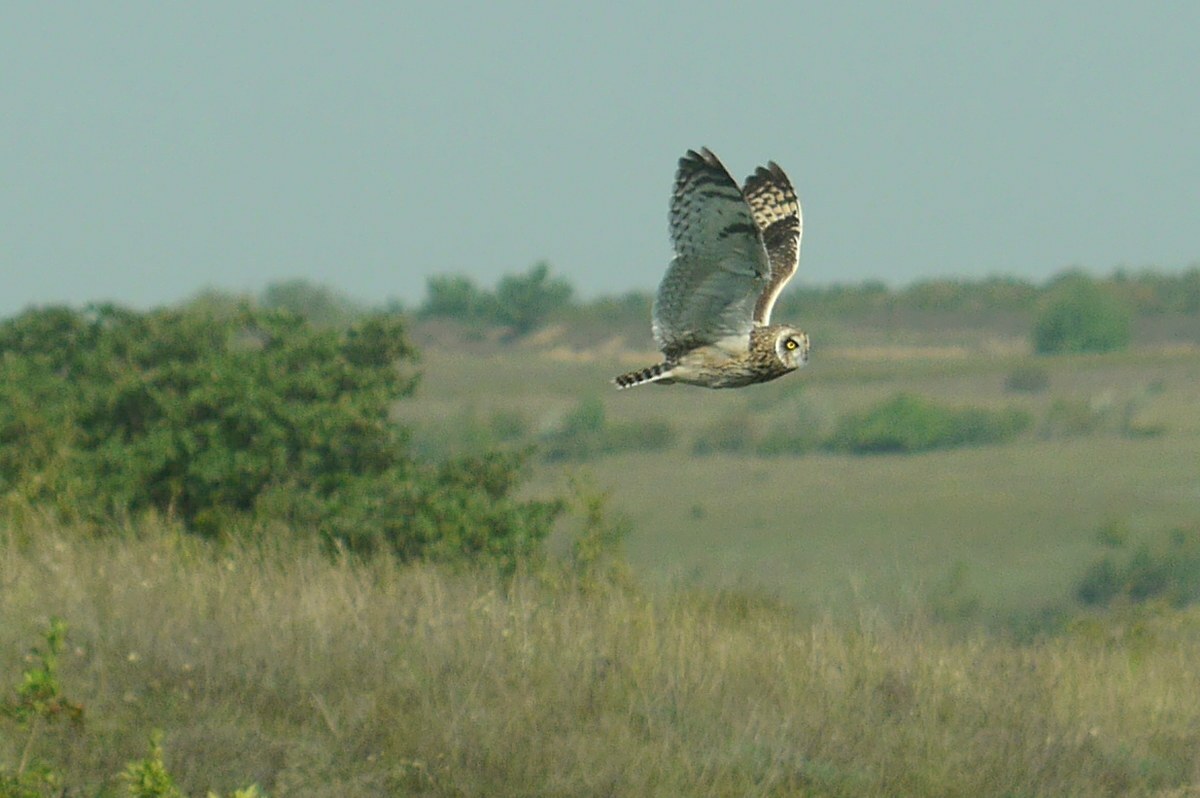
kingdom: Animalia
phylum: Chordata
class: Aves
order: Strigiformes
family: Strigidae
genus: Asio
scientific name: Asio flammeus
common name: Short-eared owl
